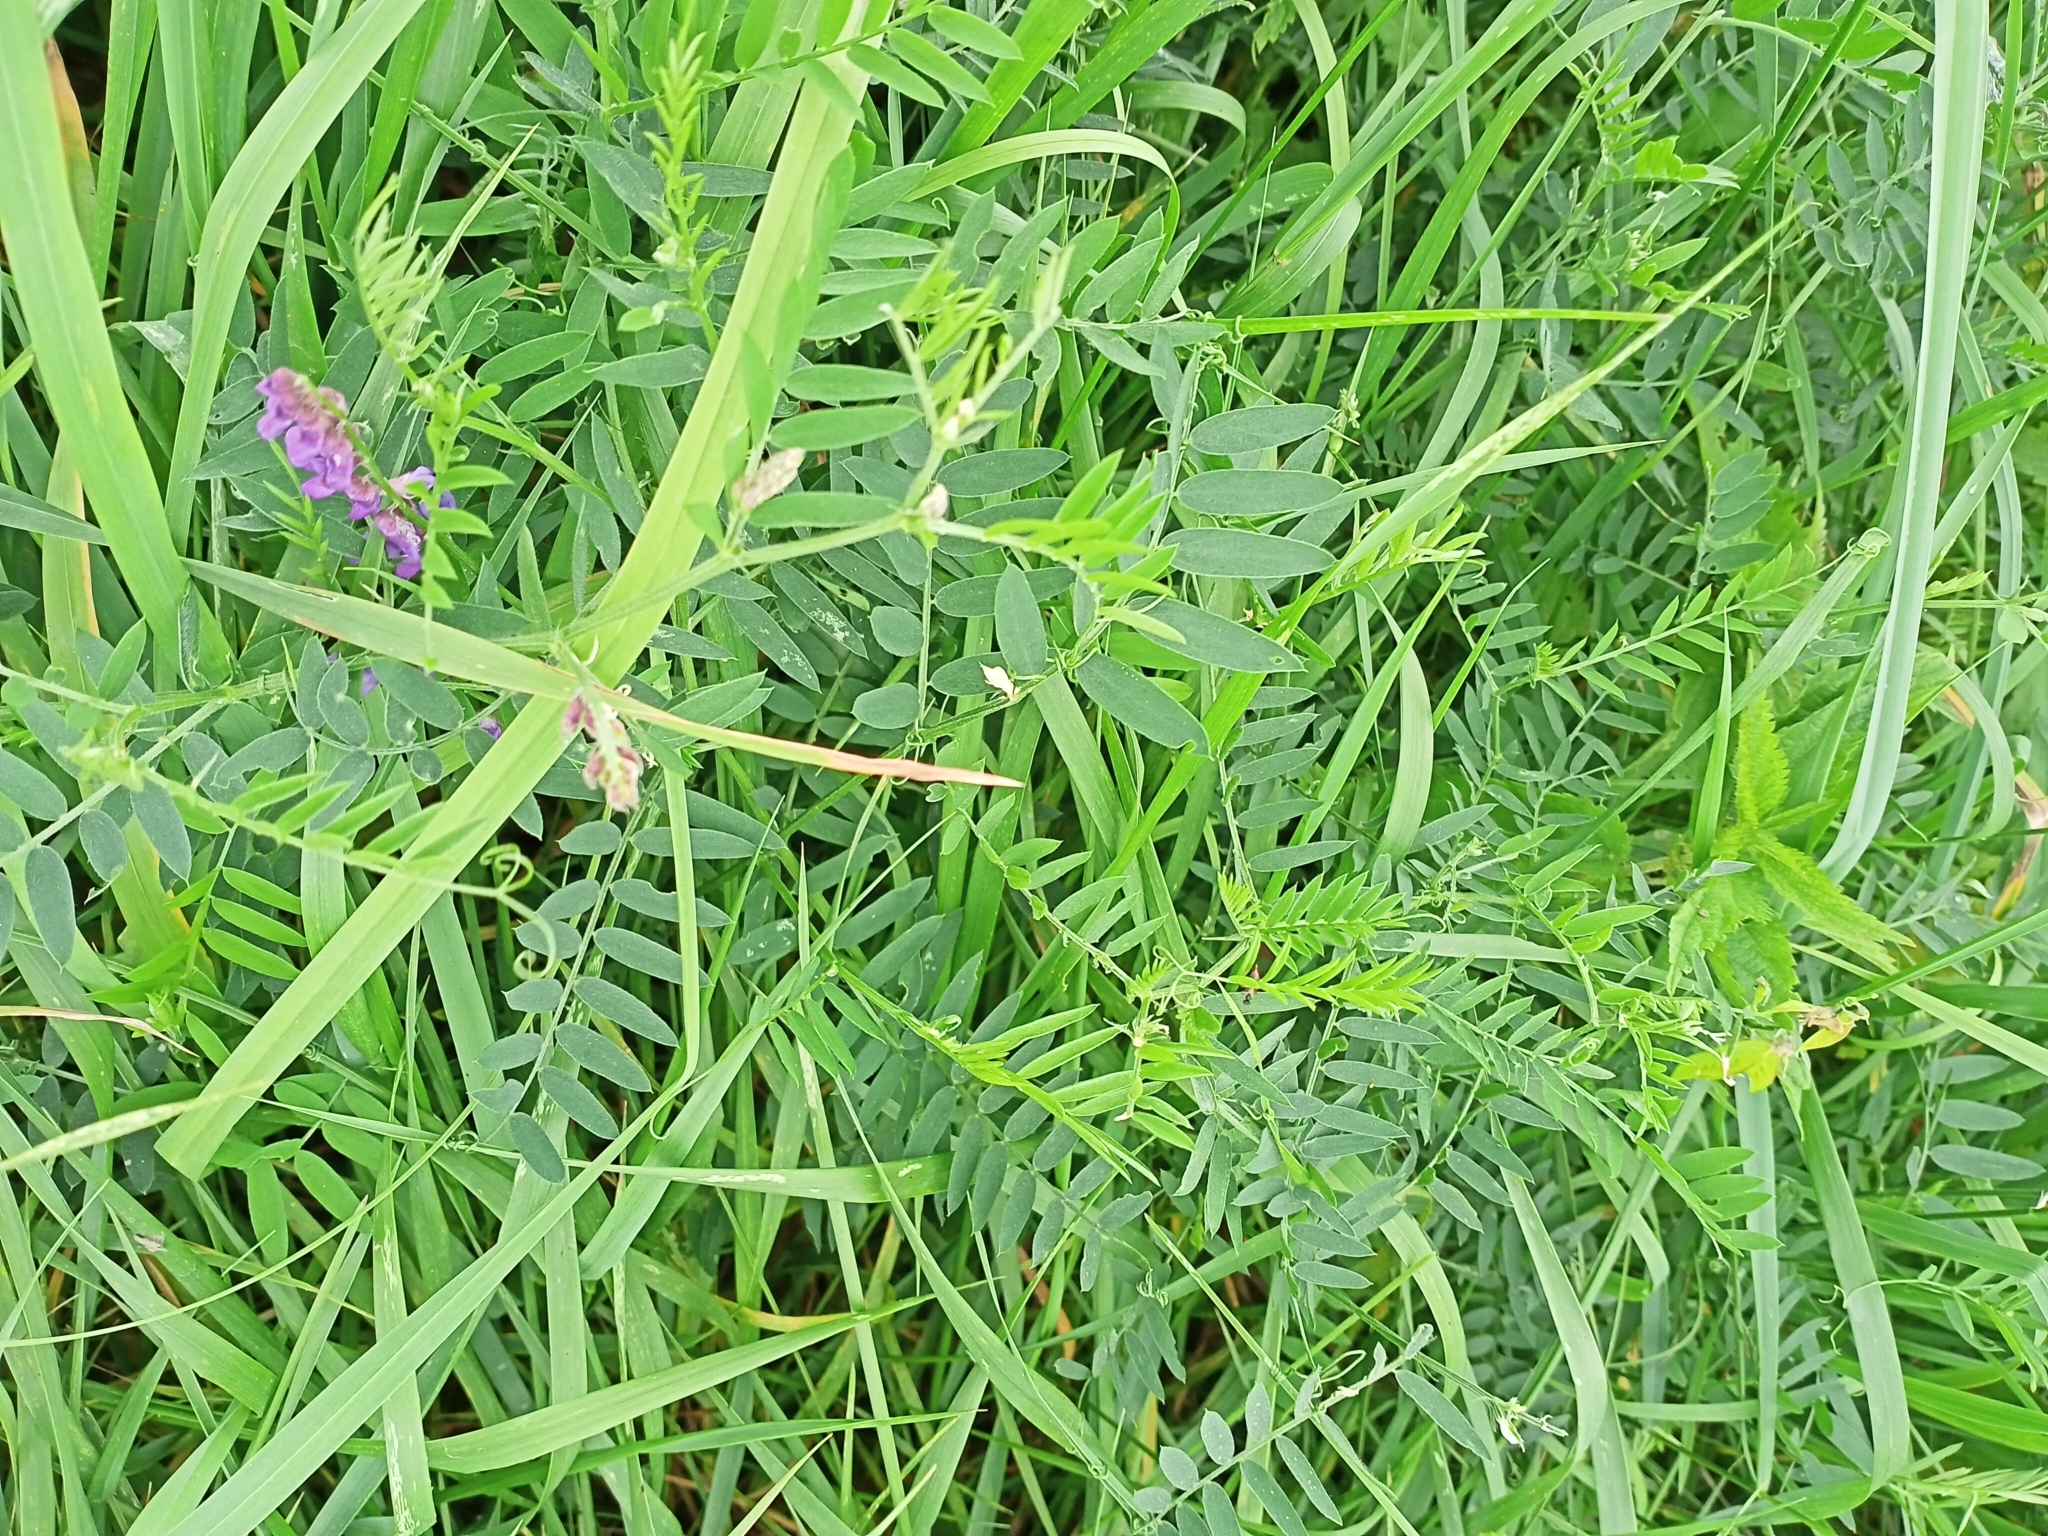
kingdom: Plantae
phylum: Tracheophyta
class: Magnoliopsida
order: Fabales
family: Fabaceae
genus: Vicia
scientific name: Vicia cracca
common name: Bird vetch
